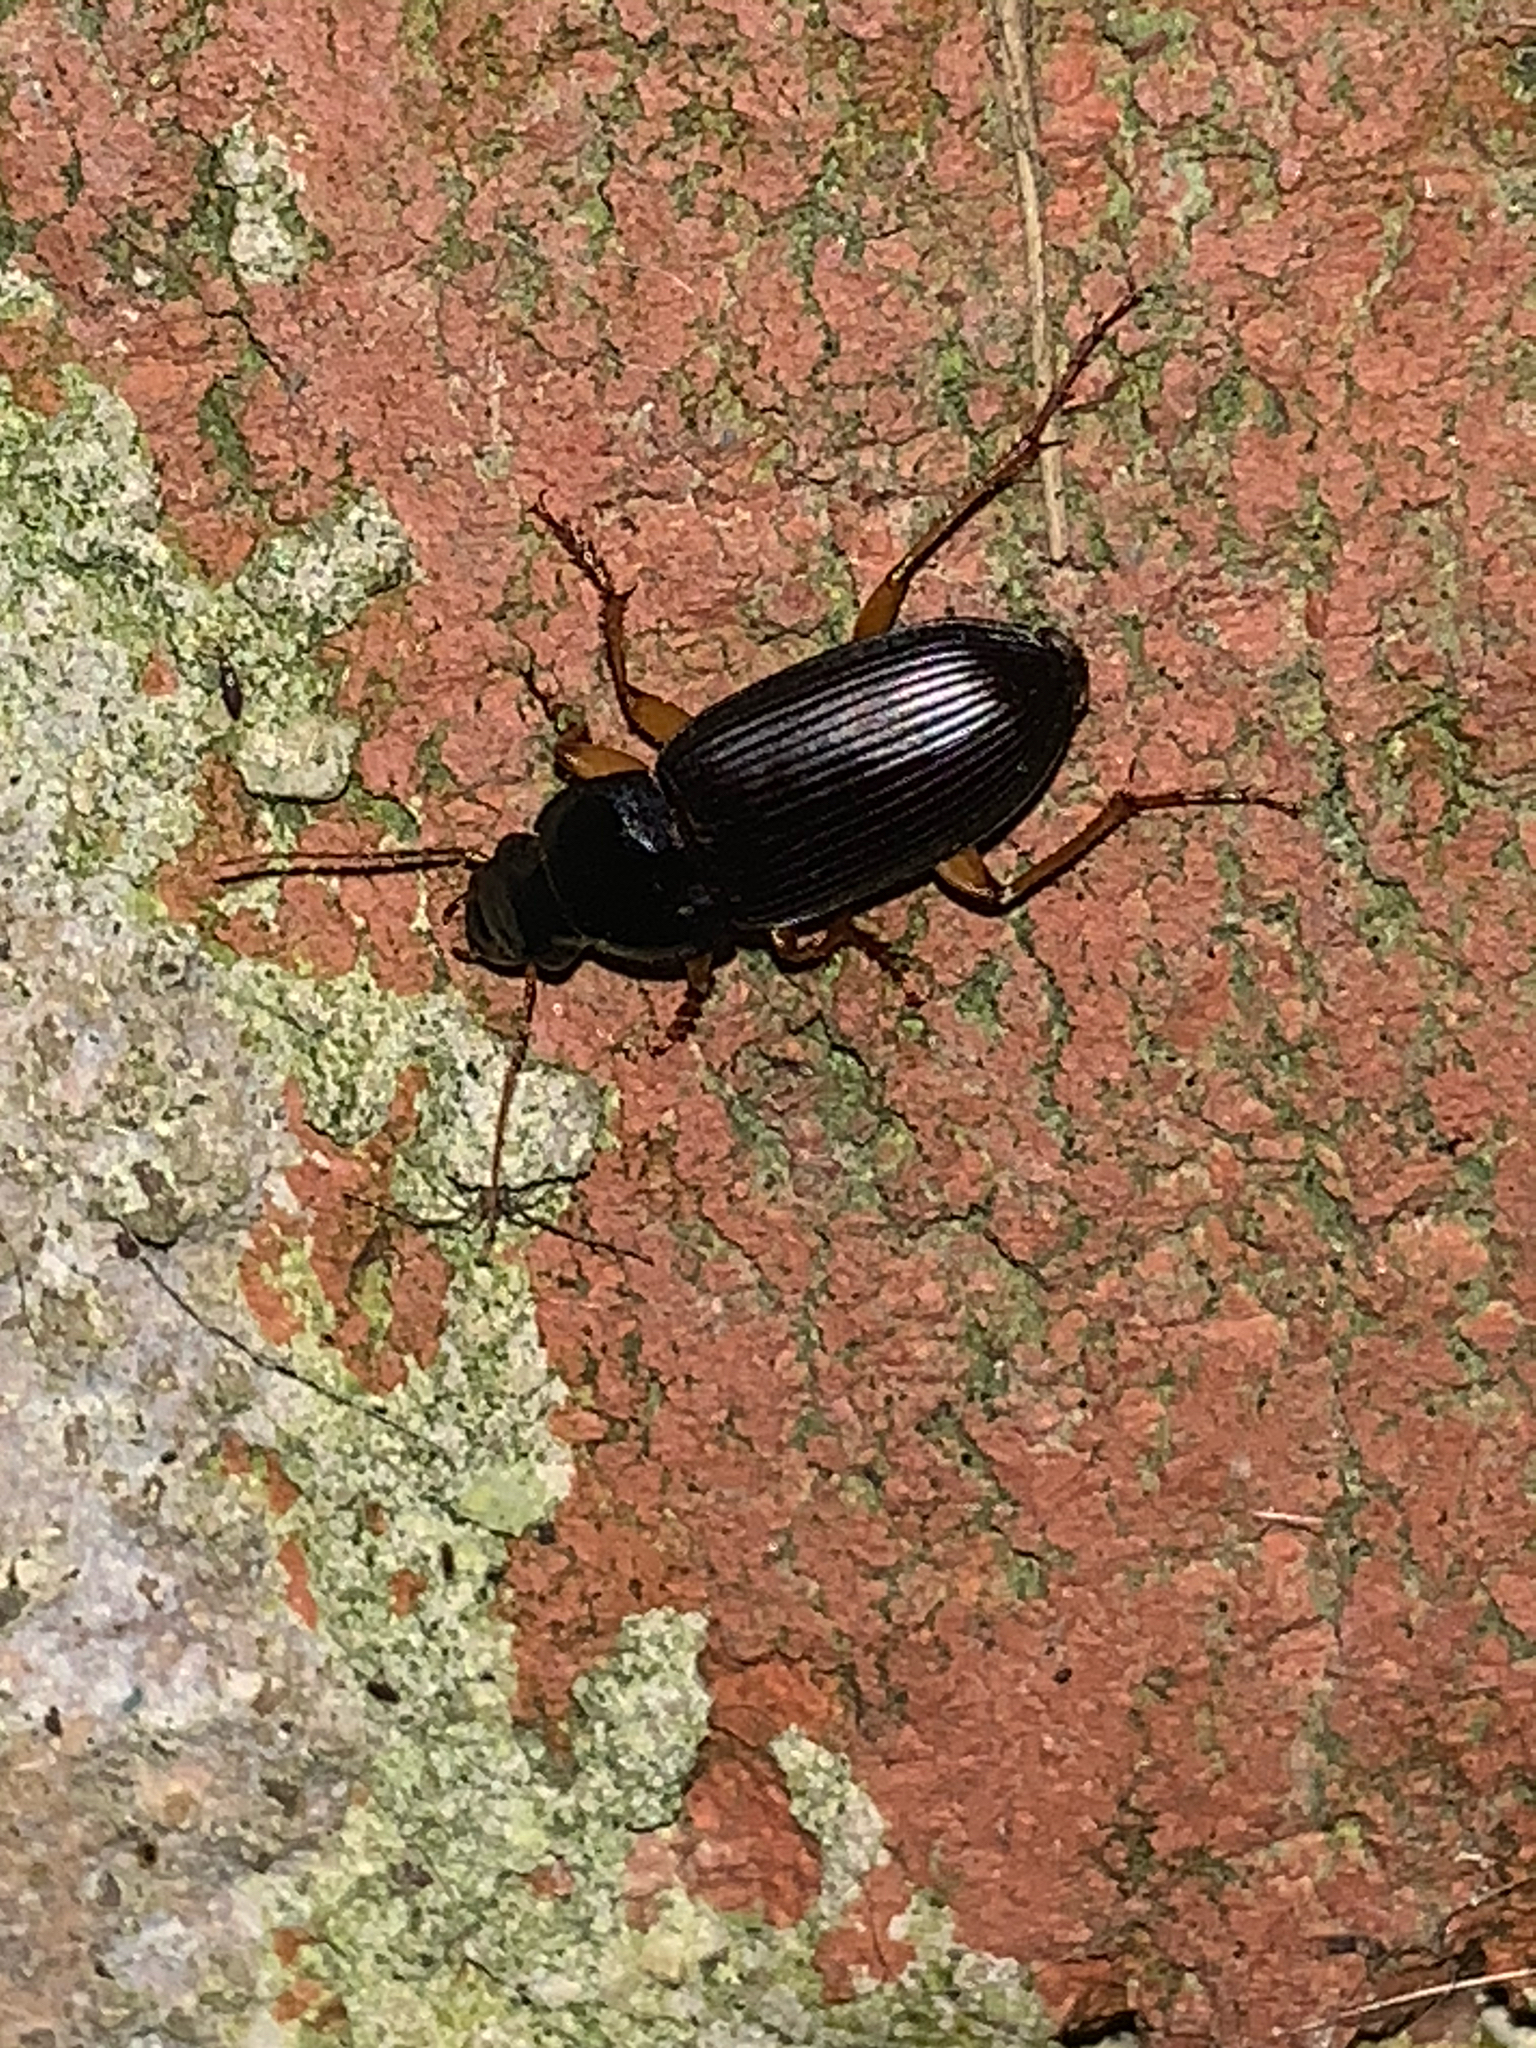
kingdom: Animalia
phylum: Arthropoda
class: Insecta
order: Coleoptera
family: Carabidae
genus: Harpalus
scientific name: Harpalus
